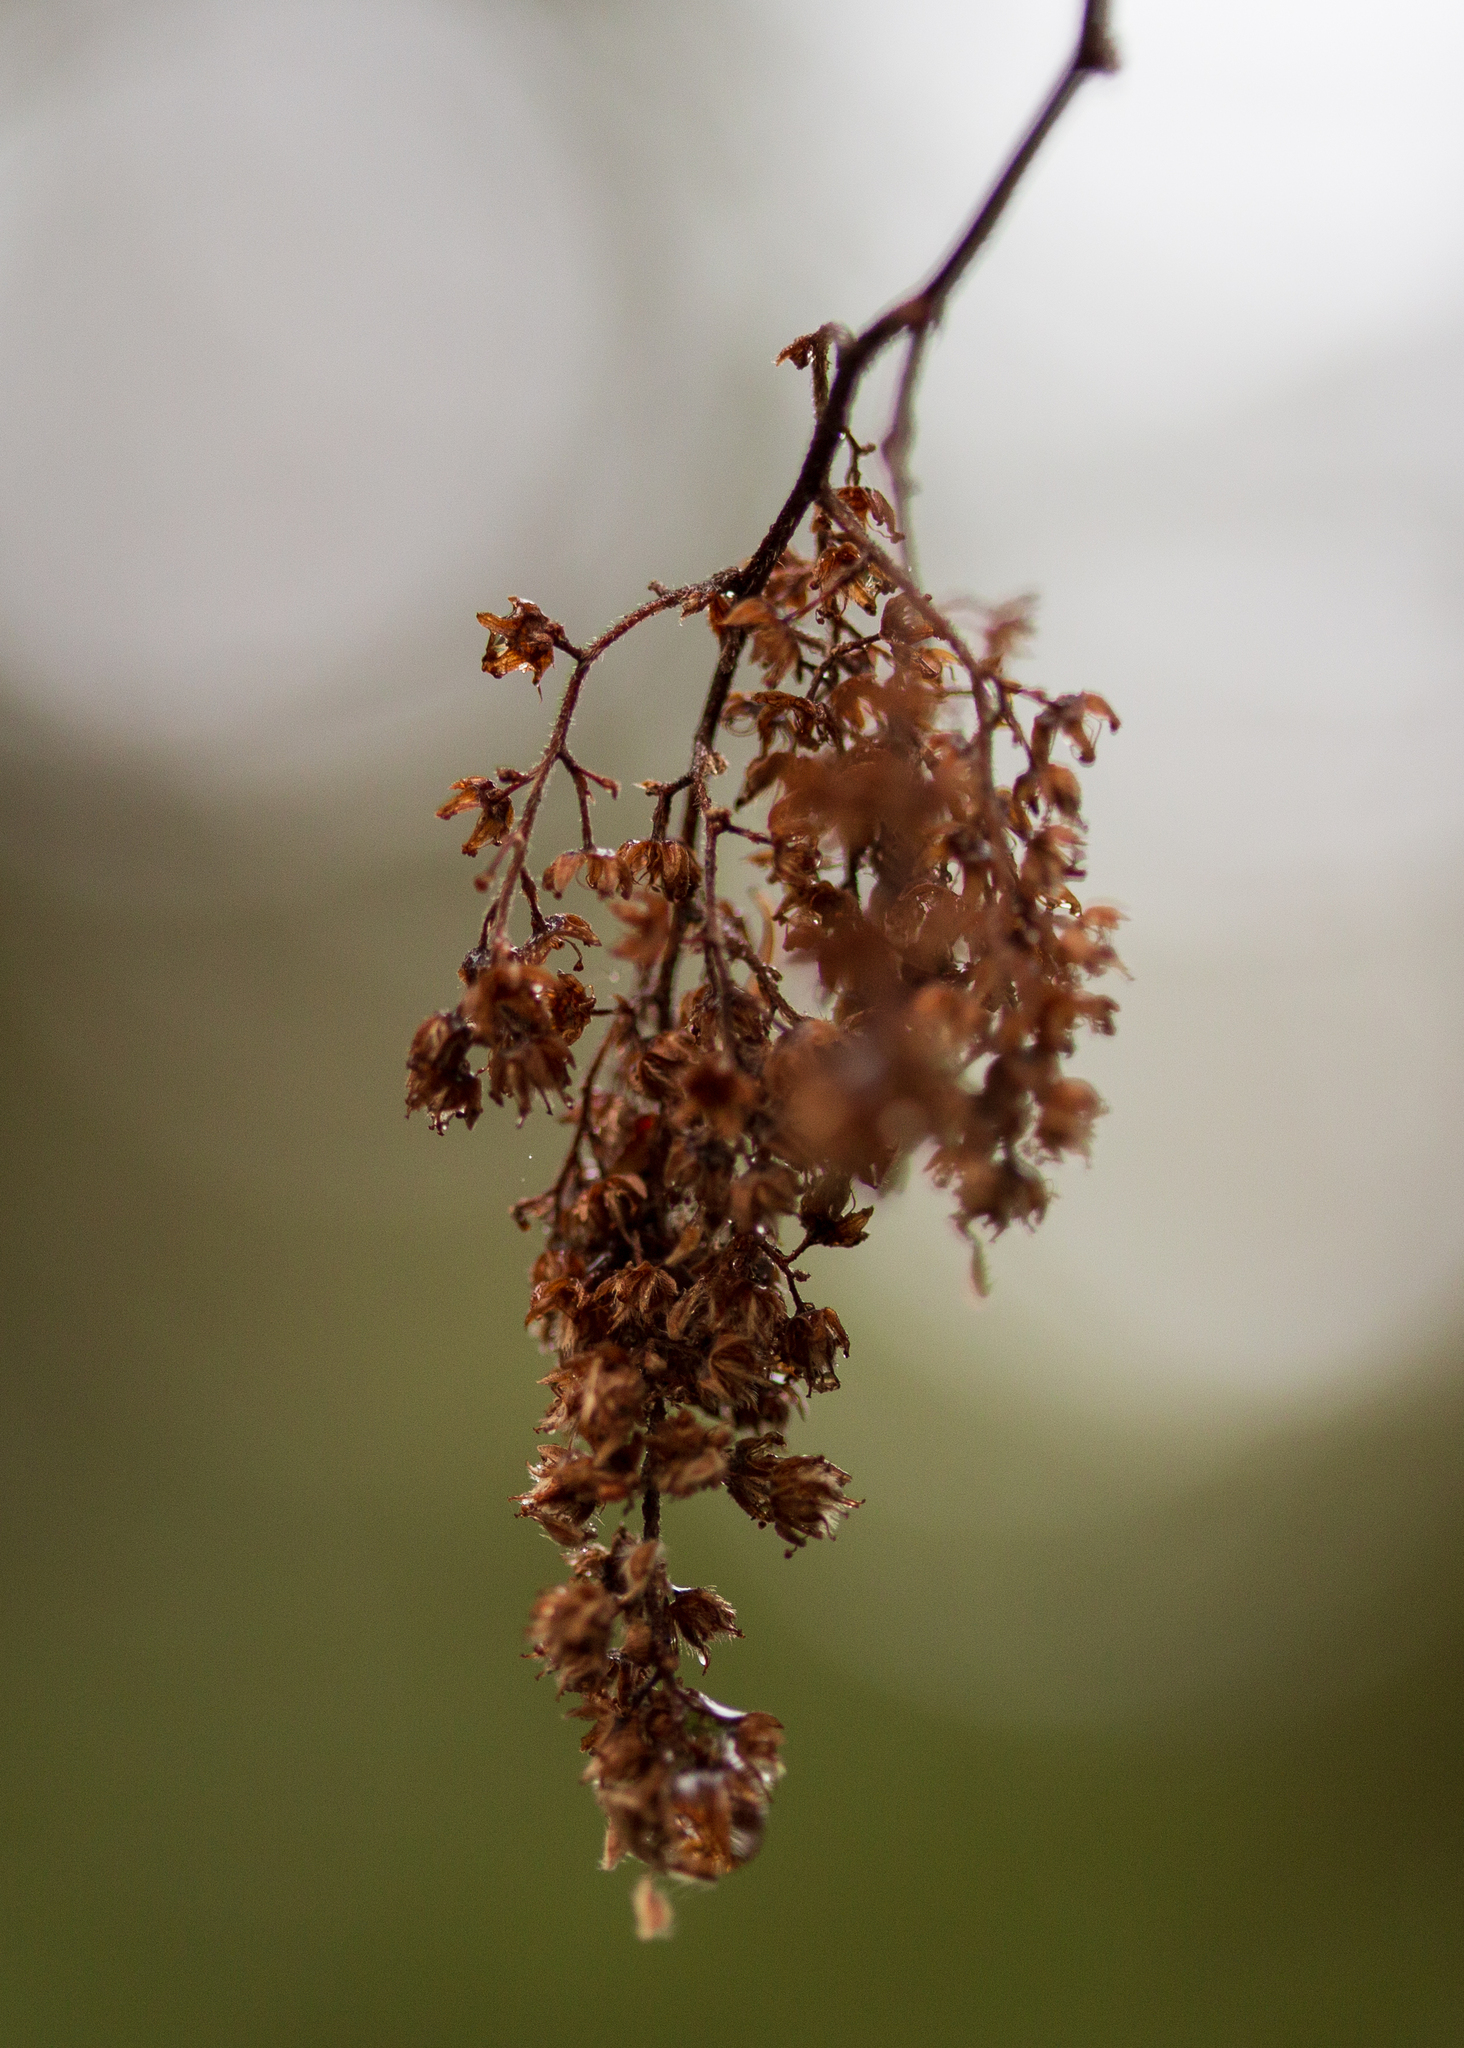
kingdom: Plantae
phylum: Tracheophyta
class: Magnoliopsida
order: Rosales
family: Rosaceae
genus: Holodiscus
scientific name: Holodiscus discolor
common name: Oceanspray
